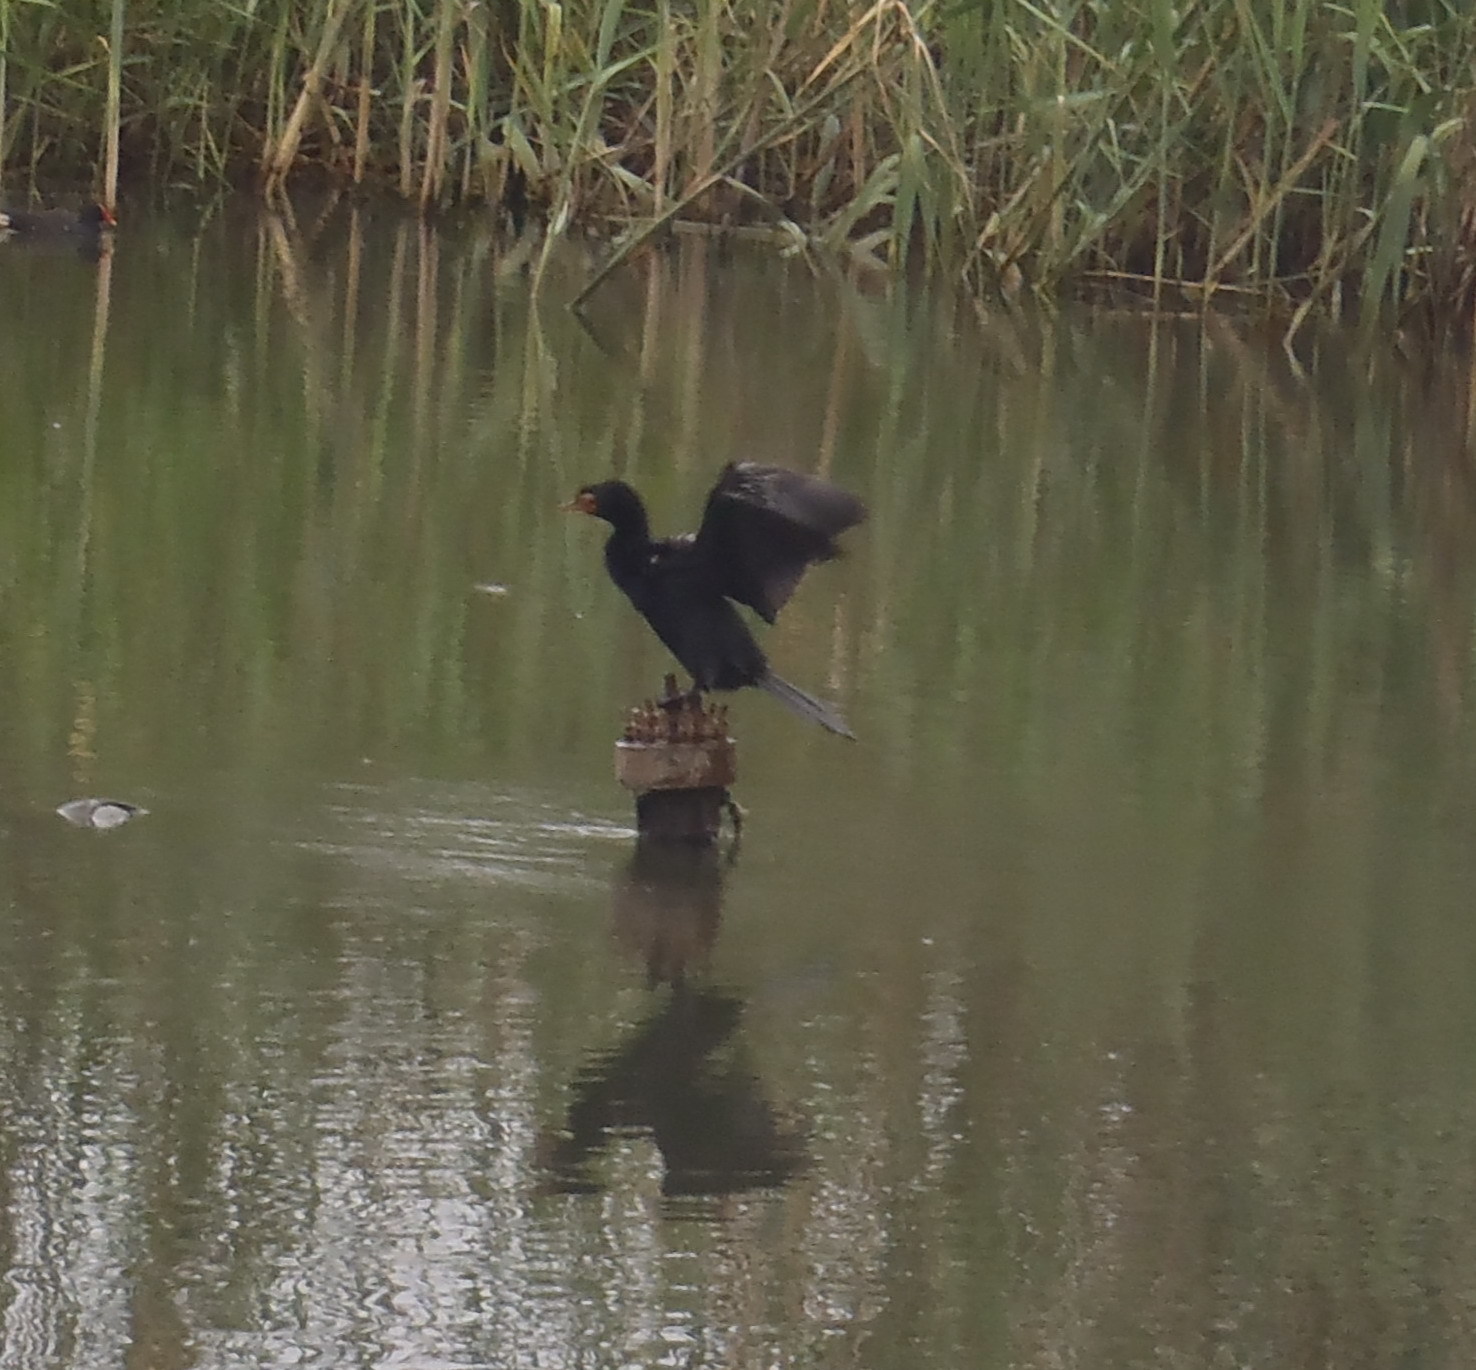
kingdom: Animalia
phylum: Chordata
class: Aves
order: Suliformes
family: Phalacrocoracidae
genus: Microcarbo
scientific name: Microcarbo africanus
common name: Long-tailed cormorant
